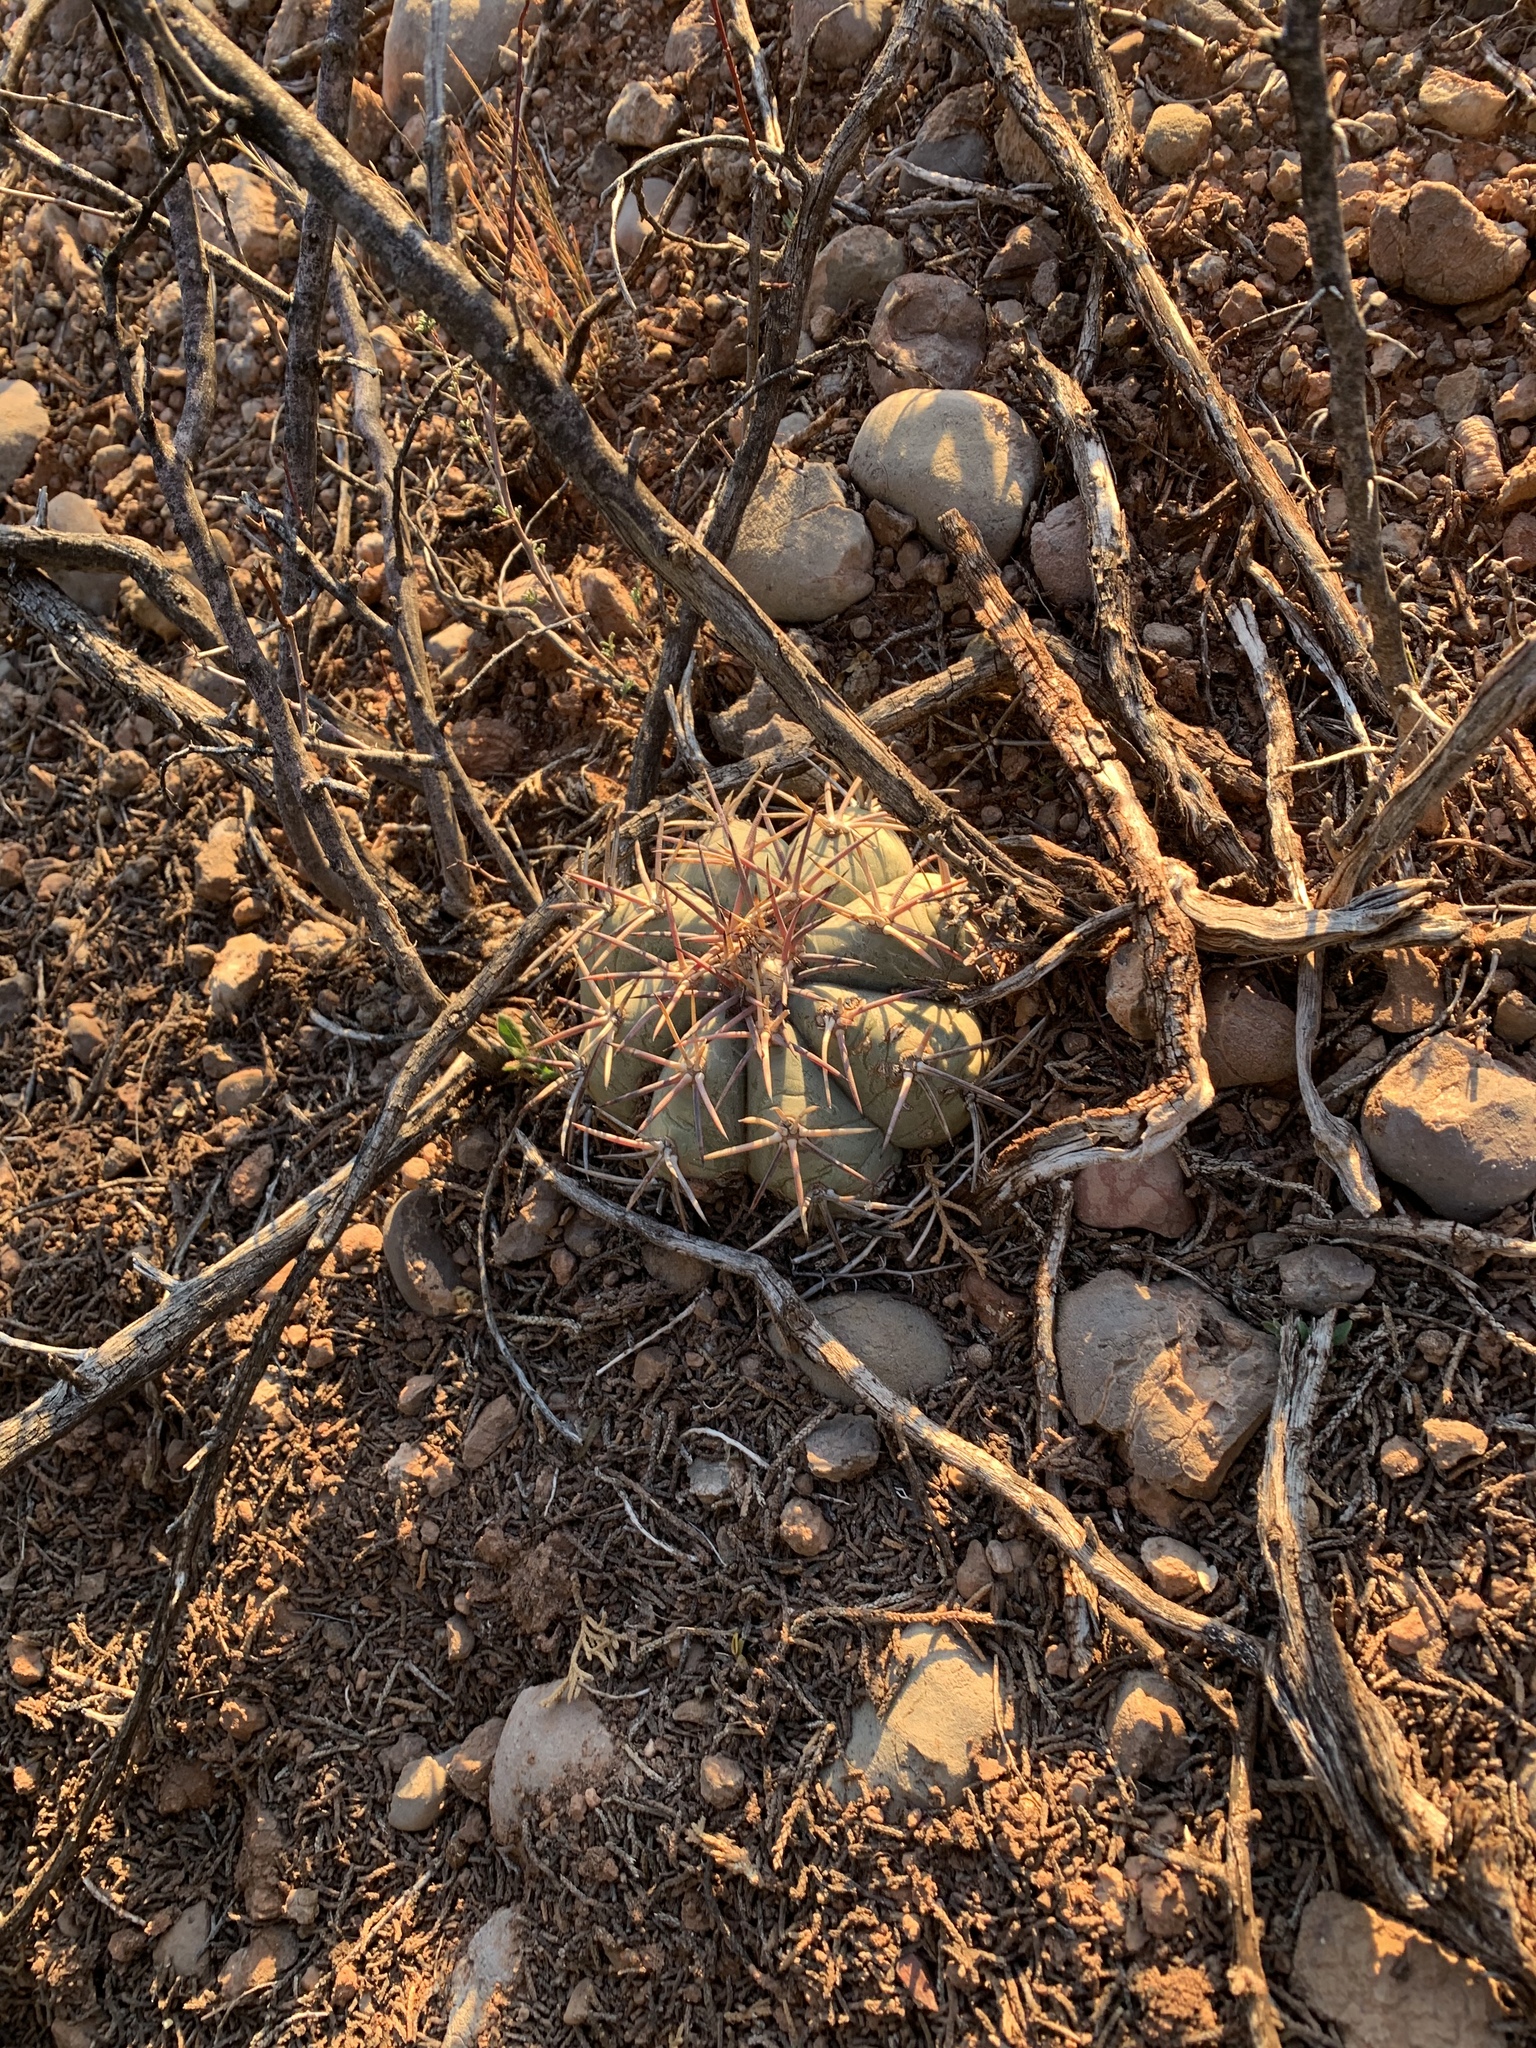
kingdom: Plantae
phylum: Tracheophyta
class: Magnoliopsida
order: Caryophyllales
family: Cactaceae
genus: Echinocactus
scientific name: Echinocactus horizonthalonius
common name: Devilshead
